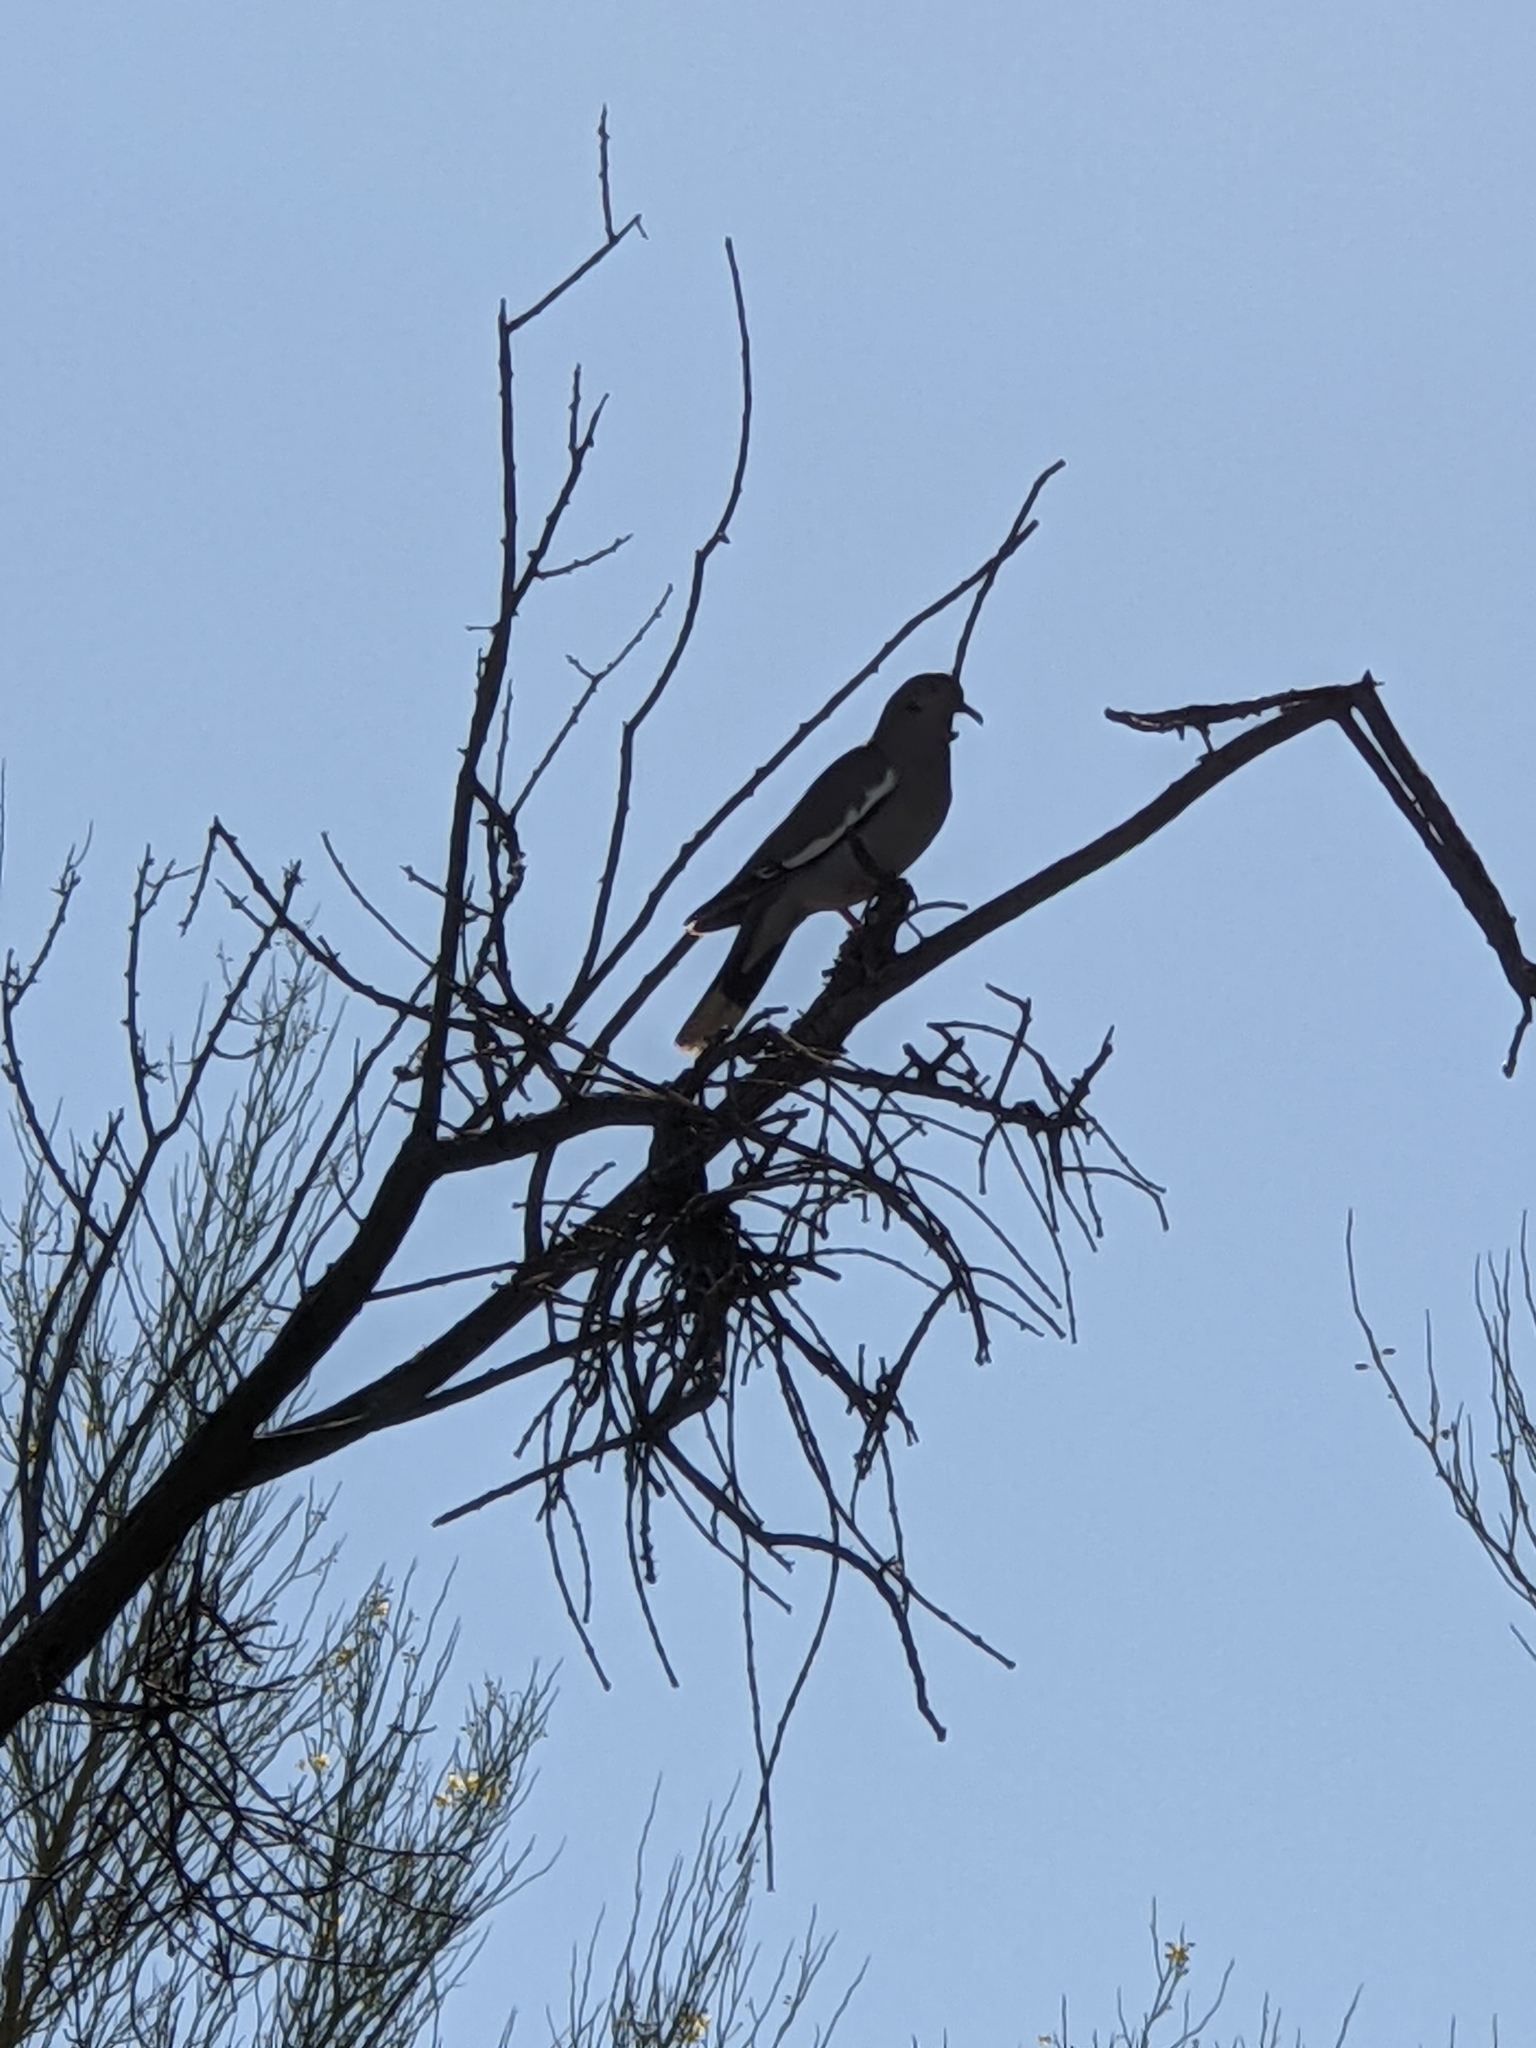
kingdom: Animalia
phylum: Chordata
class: Aves
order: Columbiformes
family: Columbidae
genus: Zenaida
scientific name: Zenaida asiatica
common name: White-winged dove
